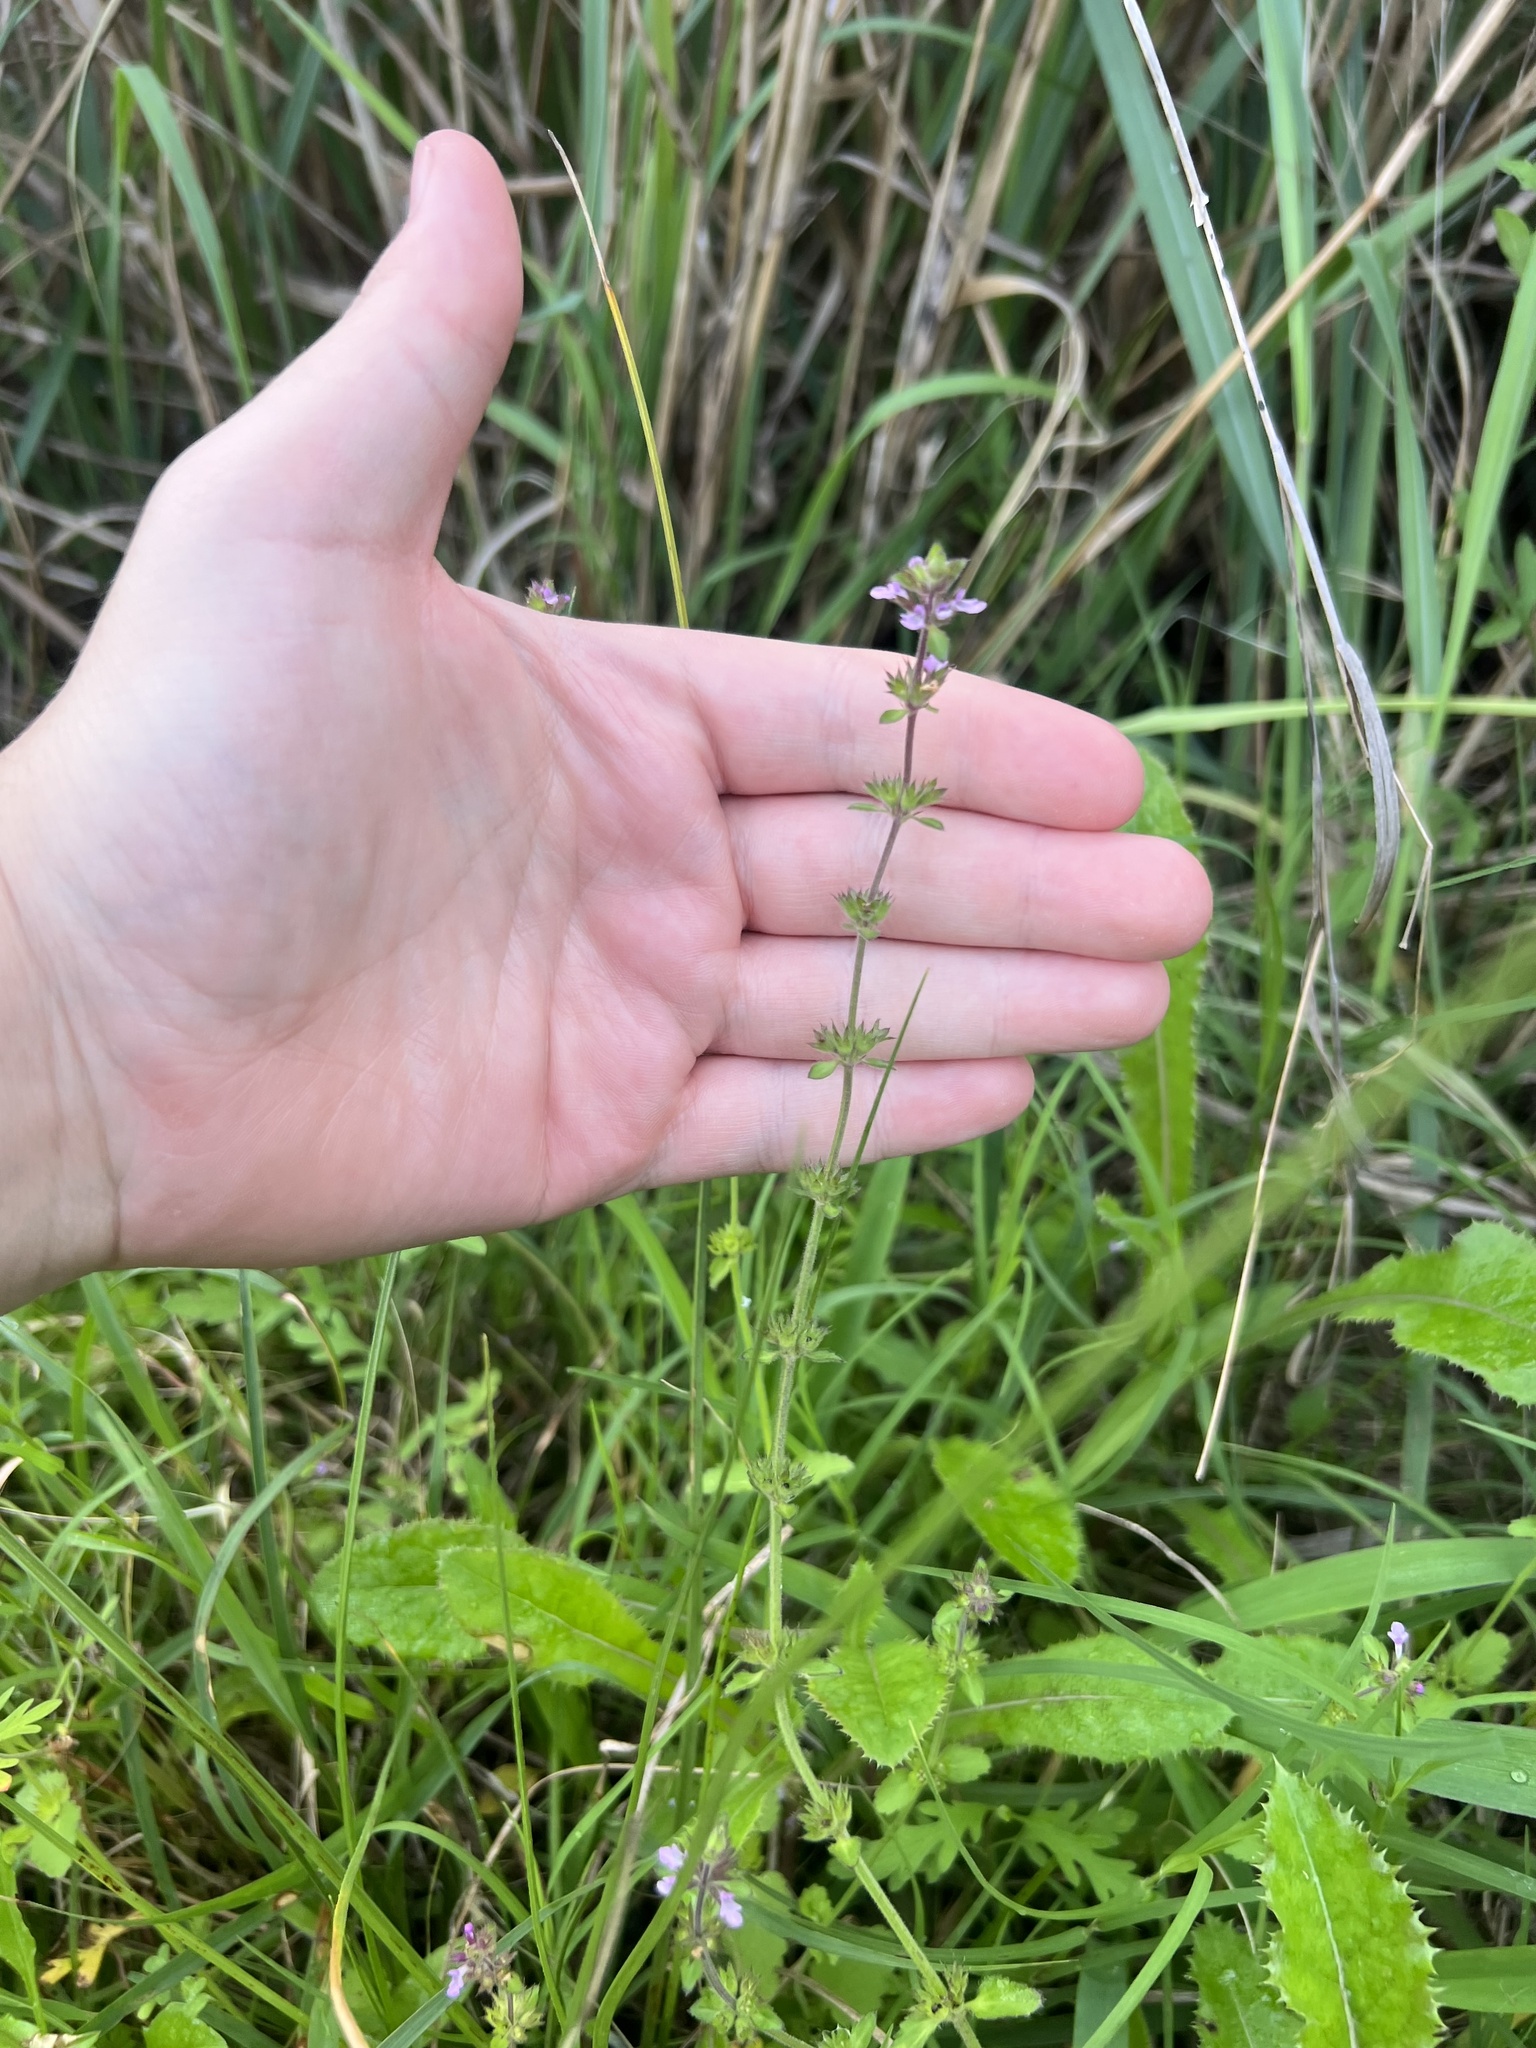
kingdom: Plantae
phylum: Tracheophyta
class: Magnoliopsida
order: Lamiales
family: Lamiaceae
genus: Stachys
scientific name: Stachys
